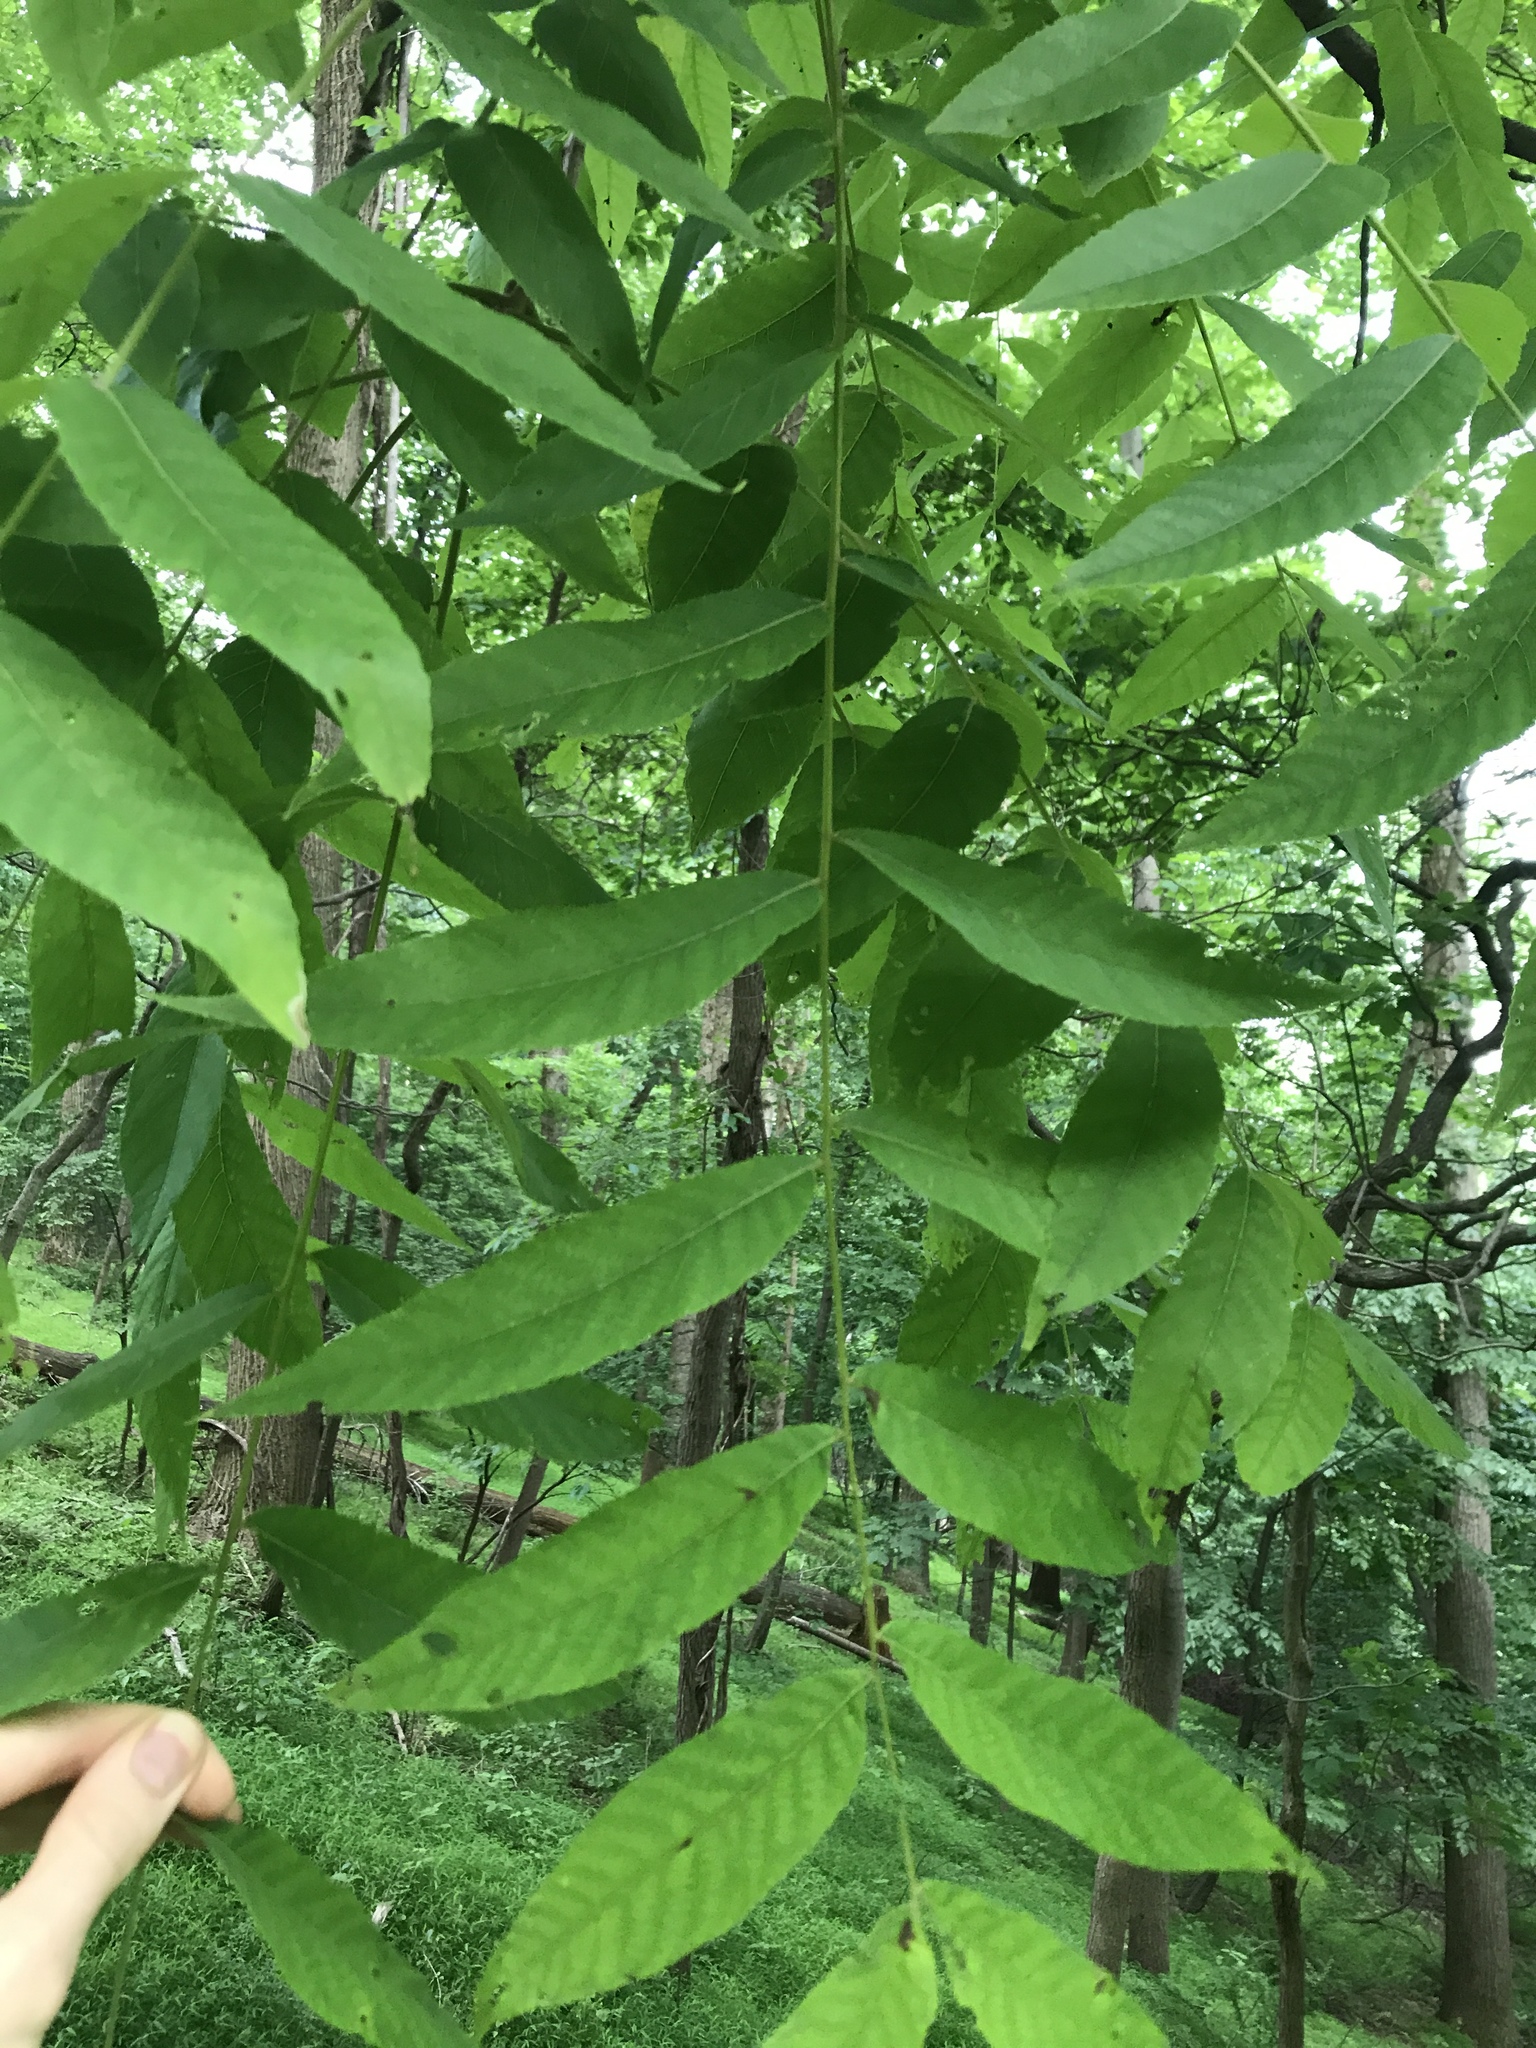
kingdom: Plantae
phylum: Tracheophyta
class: Magnoliopsida
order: Fagales
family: Juglandaceae
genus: Juglans
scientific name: Juglans nigra
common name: Black walnut
